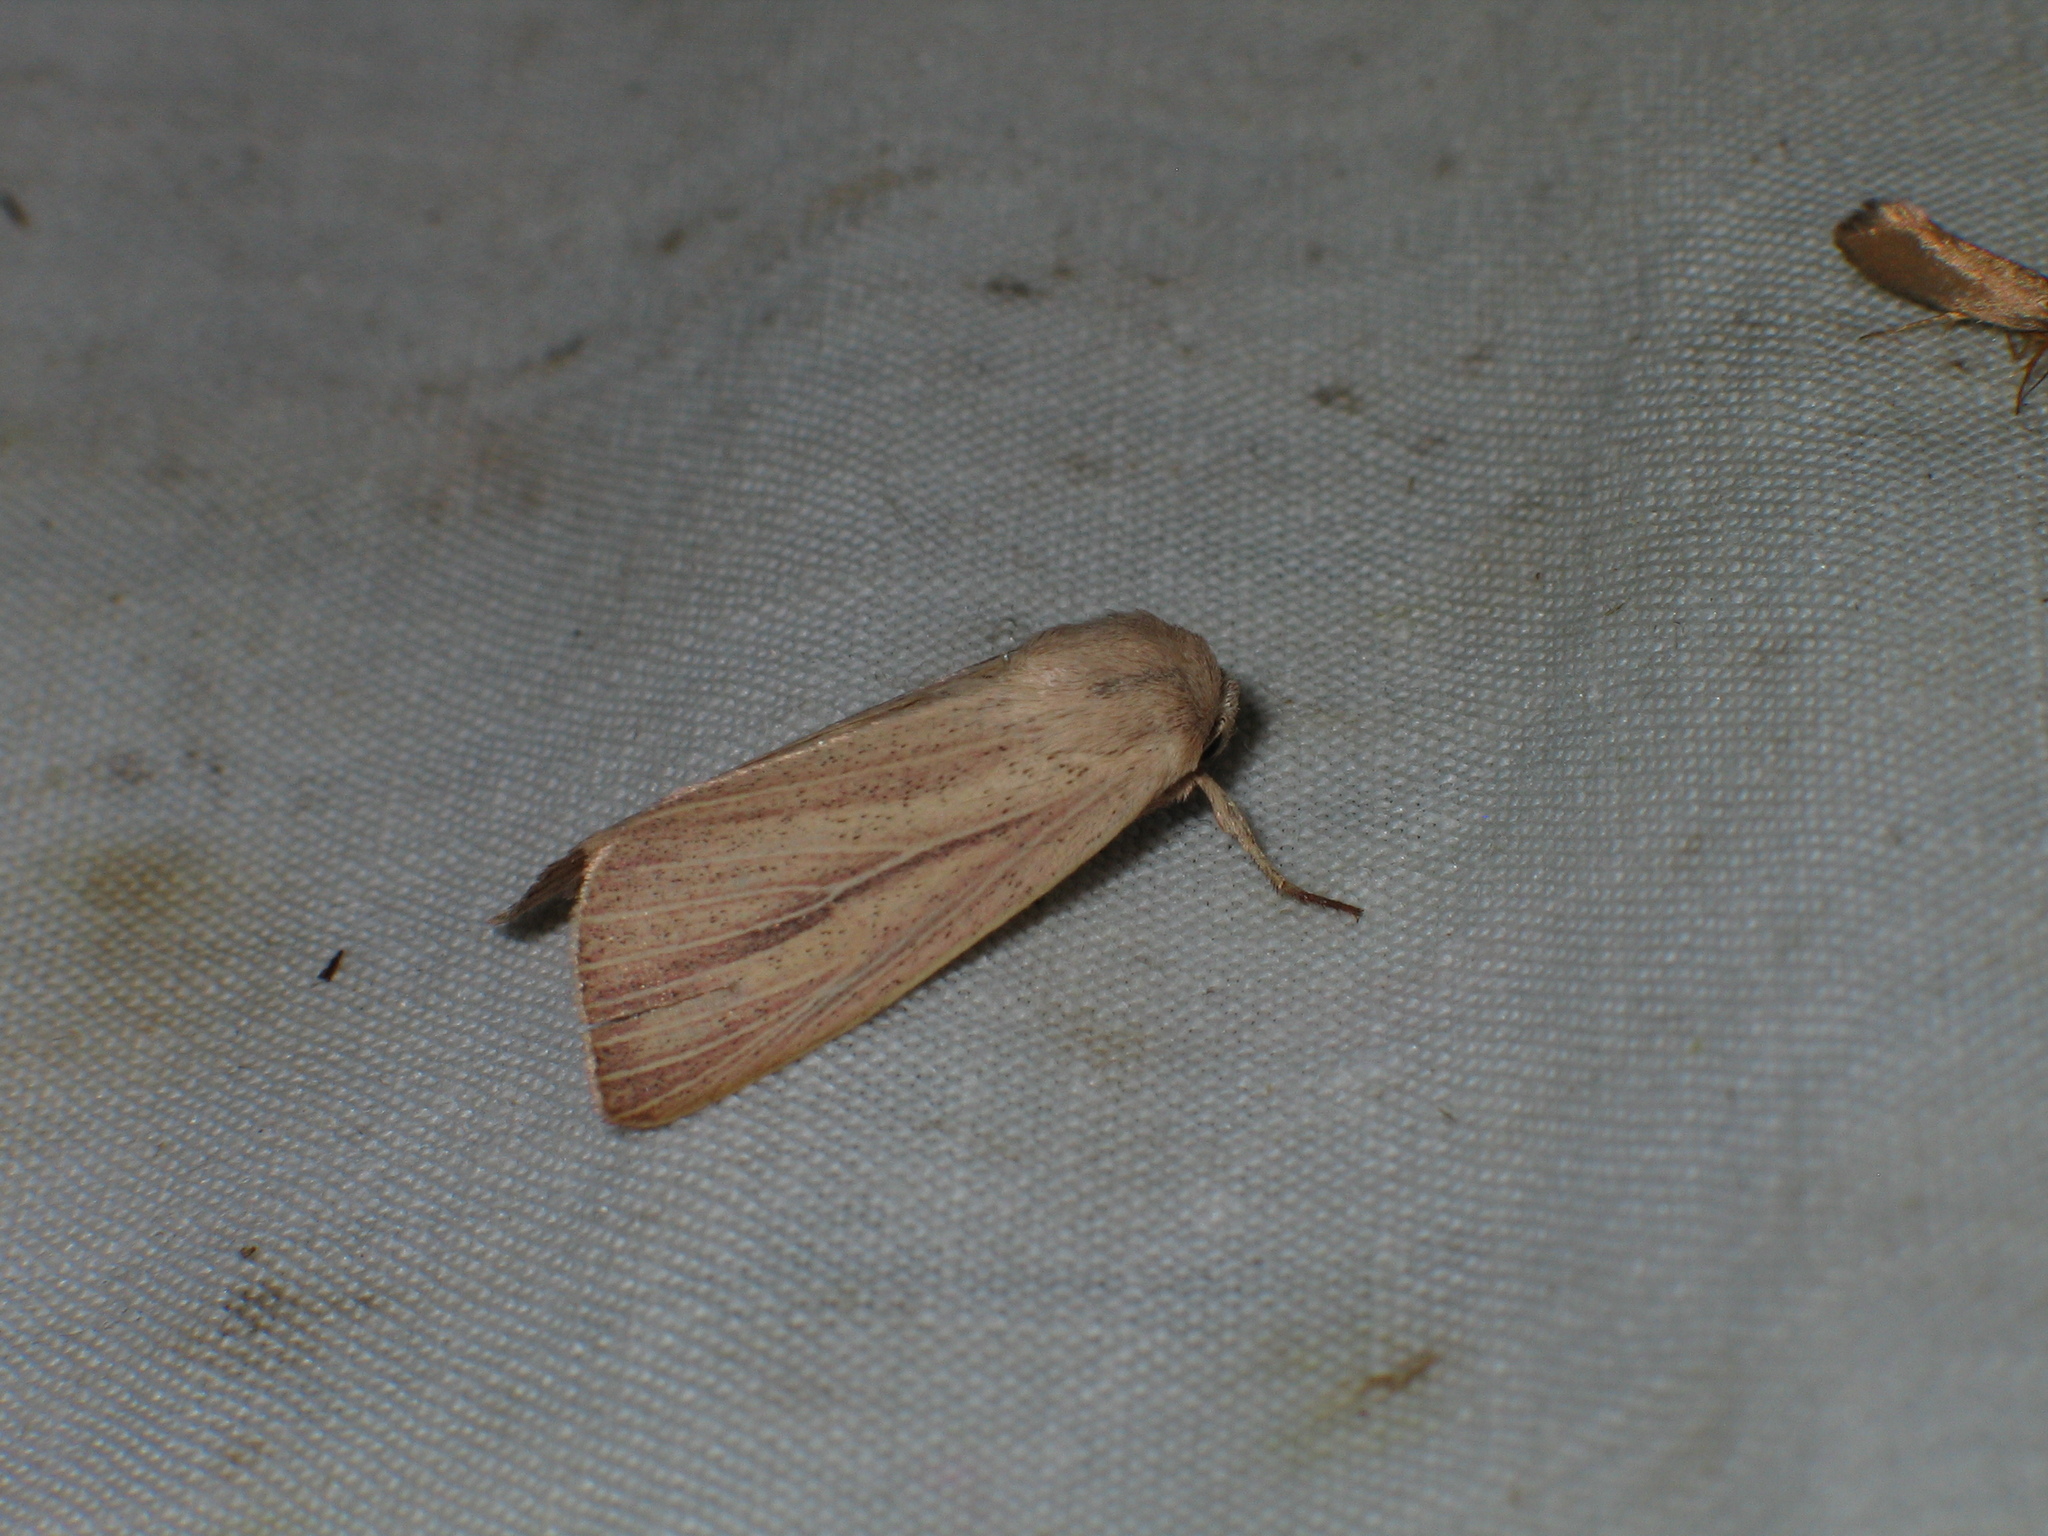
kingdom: Animalia
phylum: Arthropoda
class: Insecta
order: Lepidoptera
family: Noctuidae
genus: Mythimna
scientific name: Mythimna pudorina
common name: Striped wainscot
